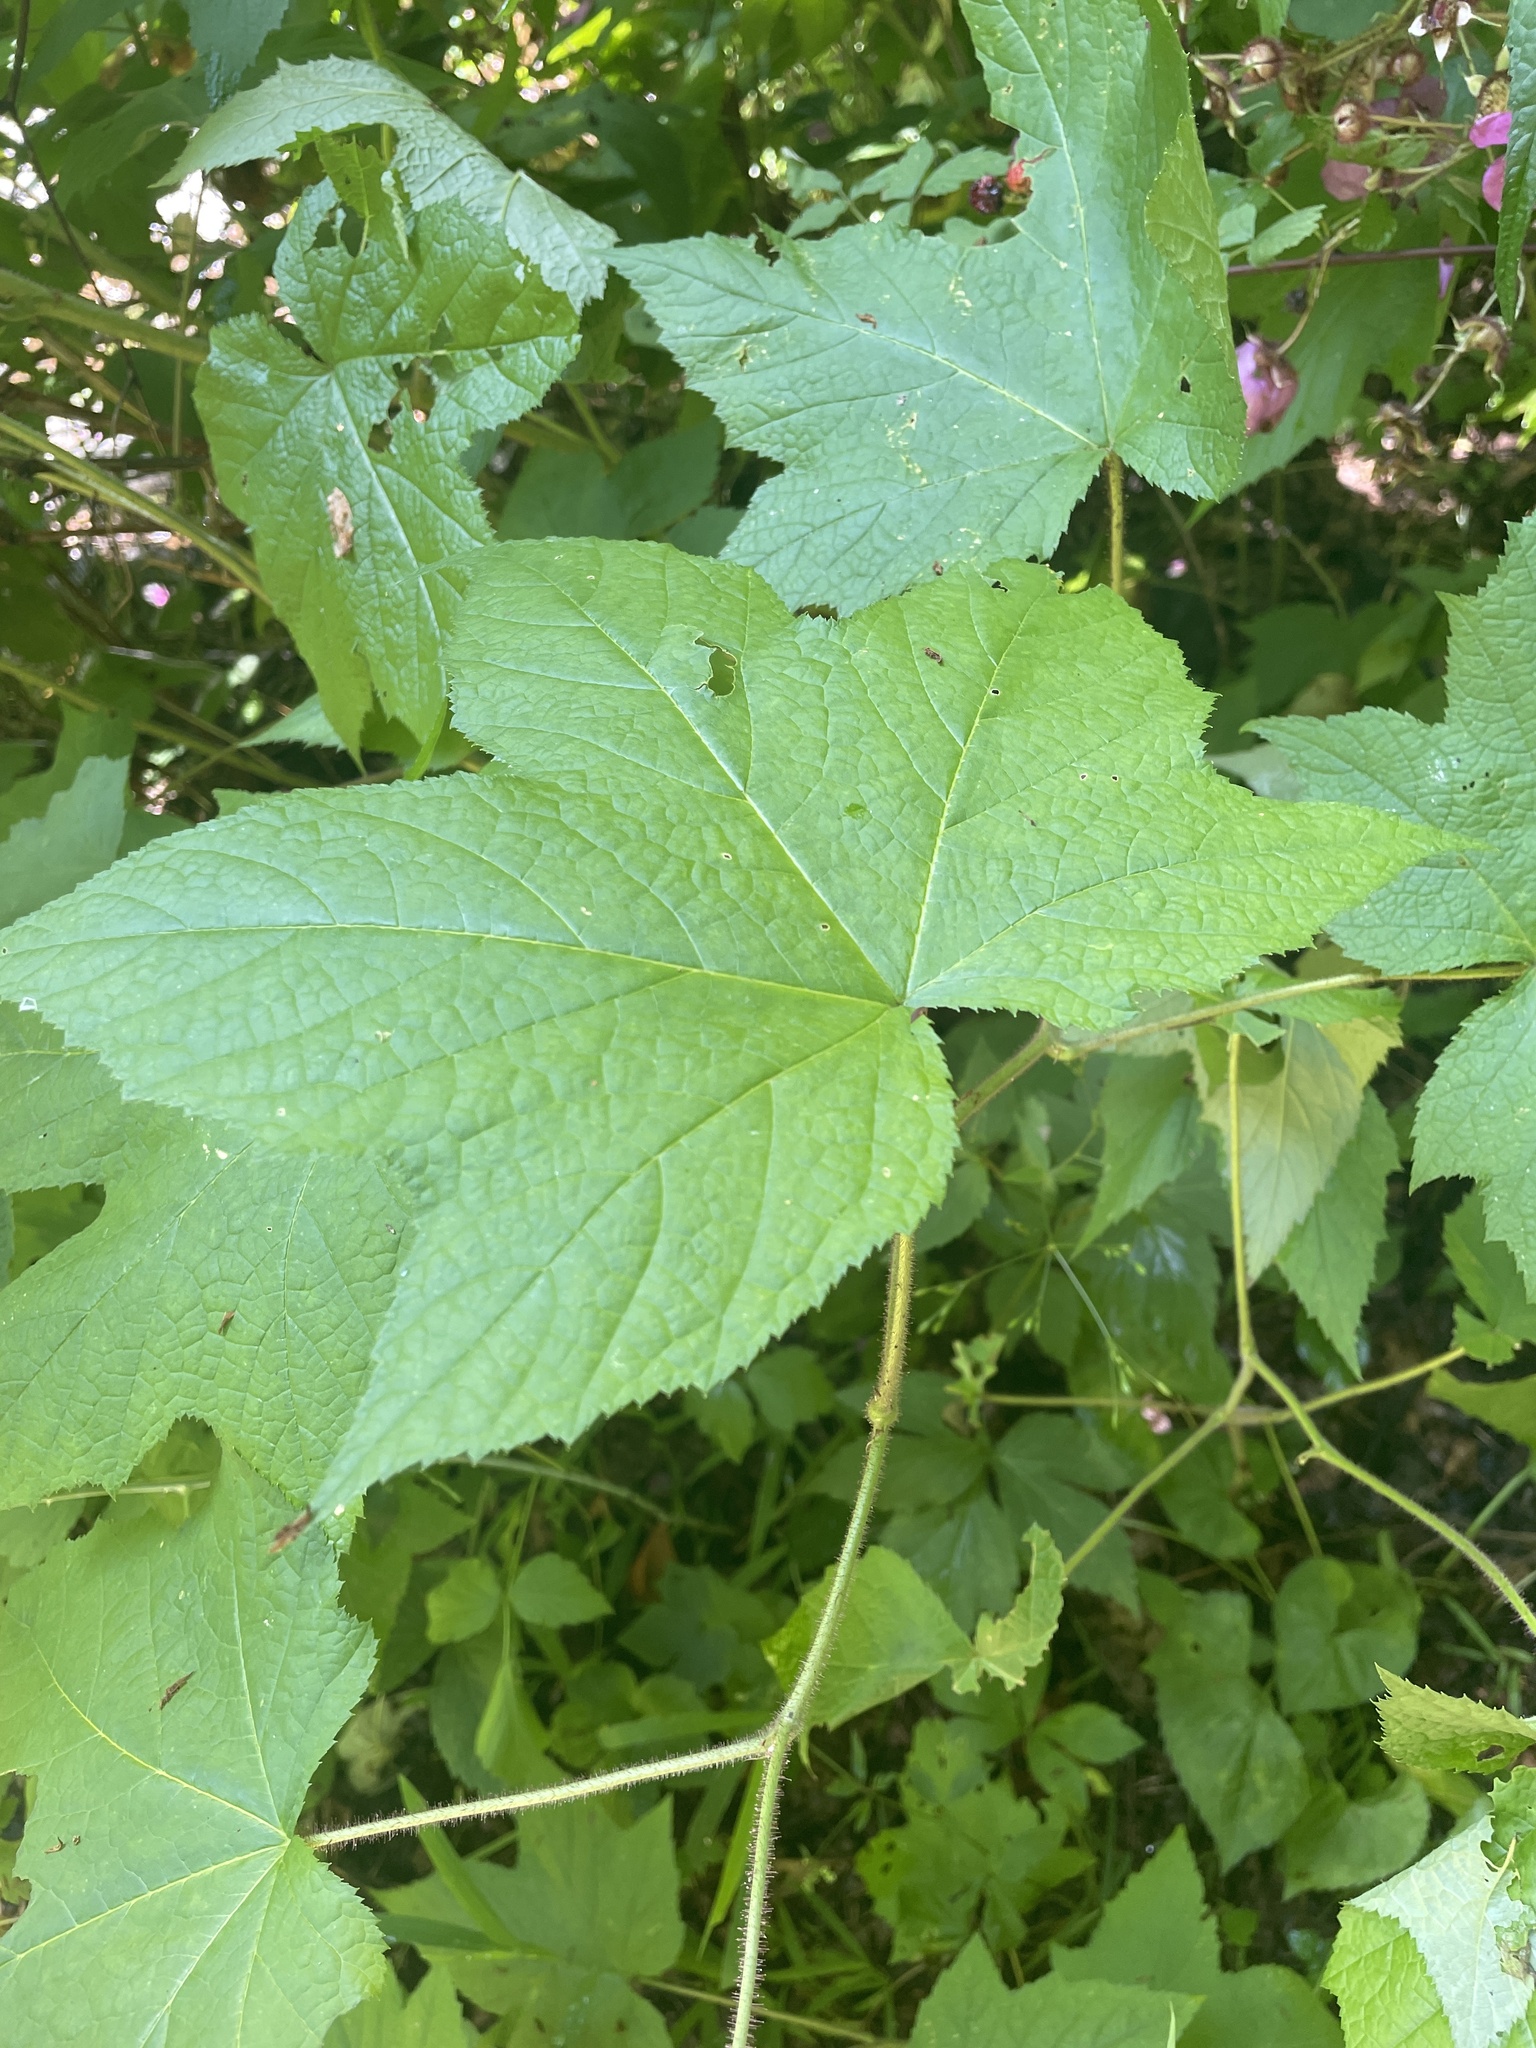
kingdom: Plantae
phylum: Tracheophyta
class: Magnoliopsida
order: Rosales
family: Rosaceae
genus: Rubus
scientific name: Rubus odoratus
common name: Purple-flowered raspberry
